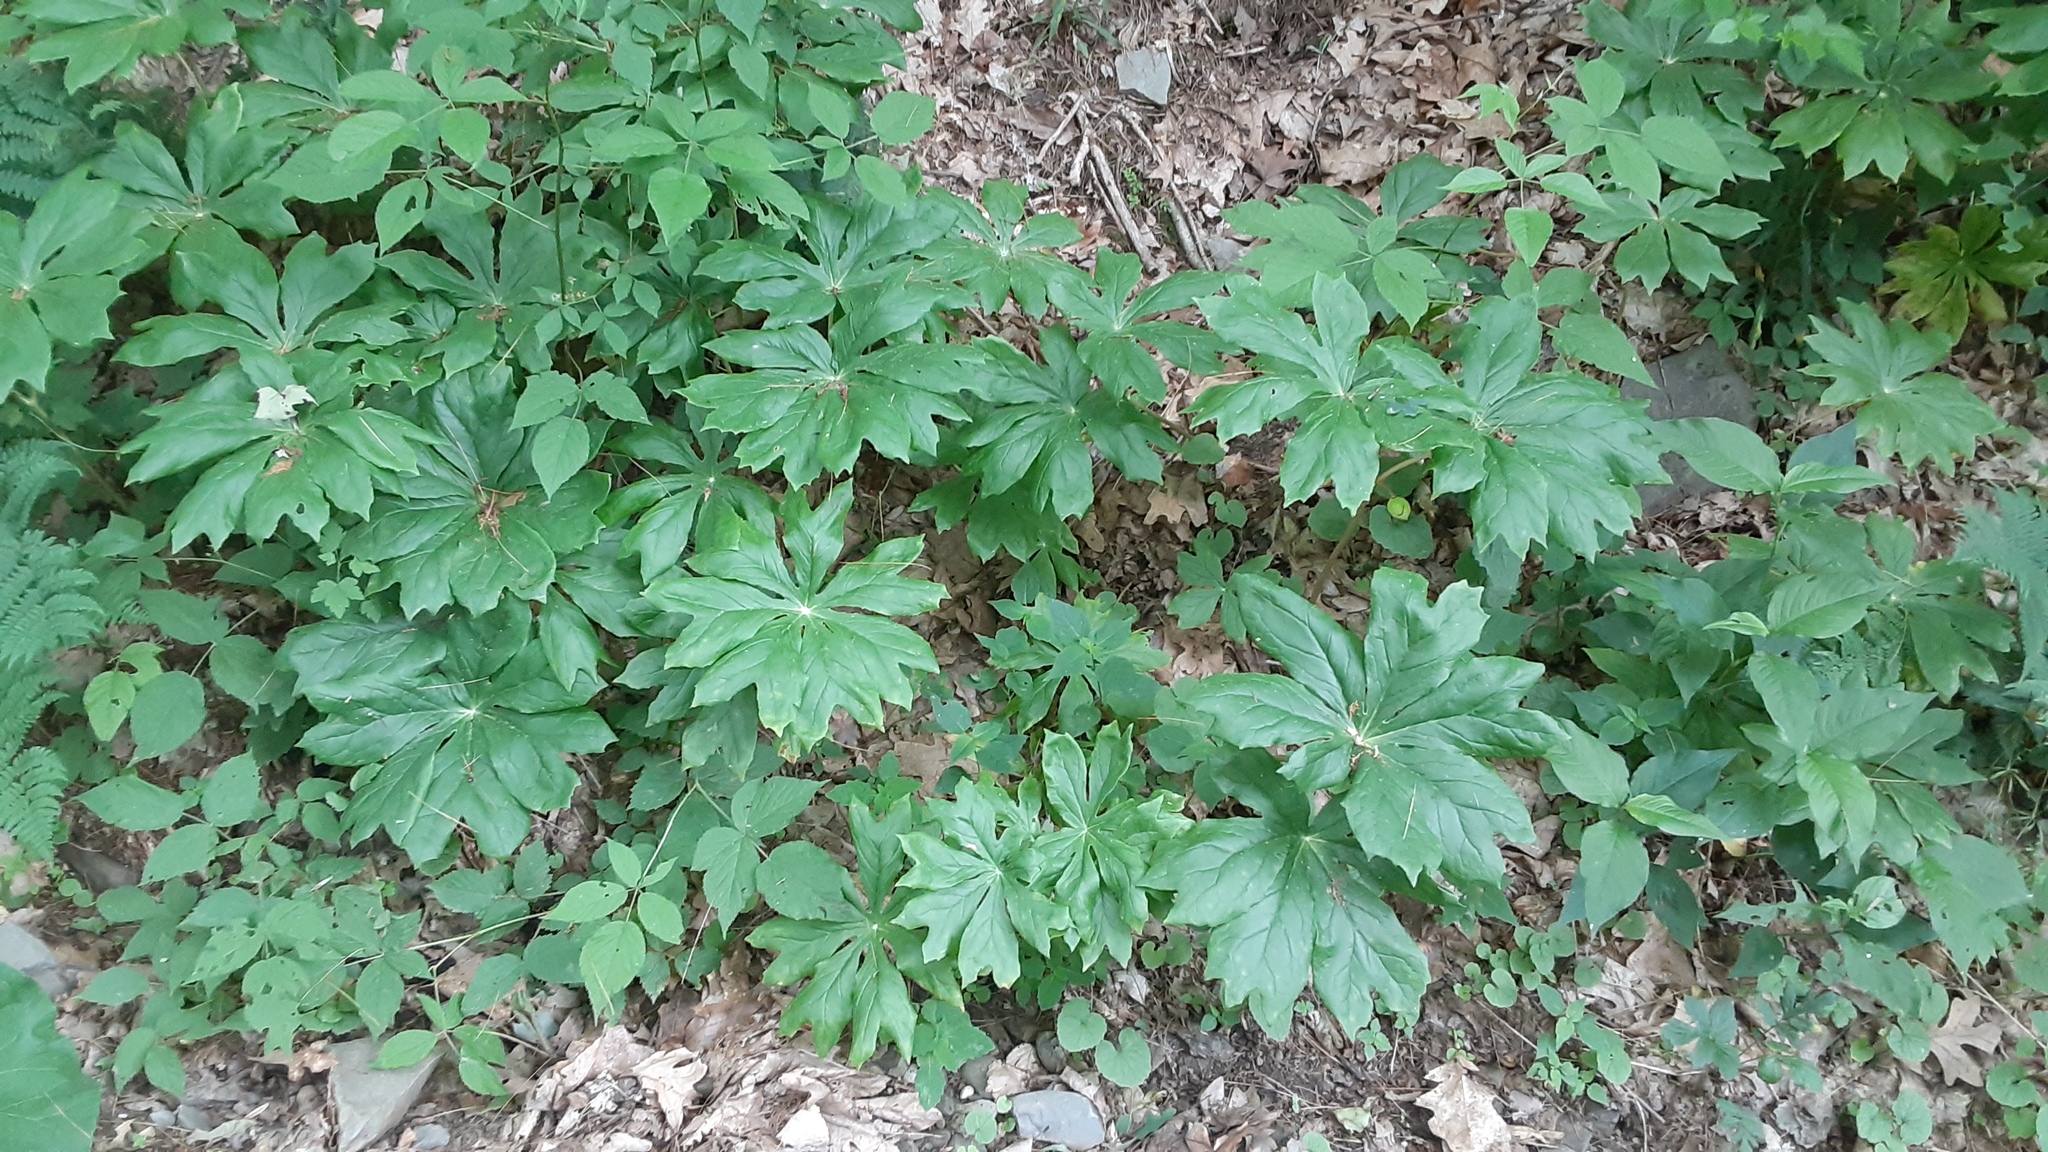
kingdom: Plantae
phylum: Tracheophyta
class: Magnoliopsida
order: Ranunculales
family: Berberidaceae
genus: Podophyllum
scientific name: Podophyllum peltatum
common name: Wild mandrake
